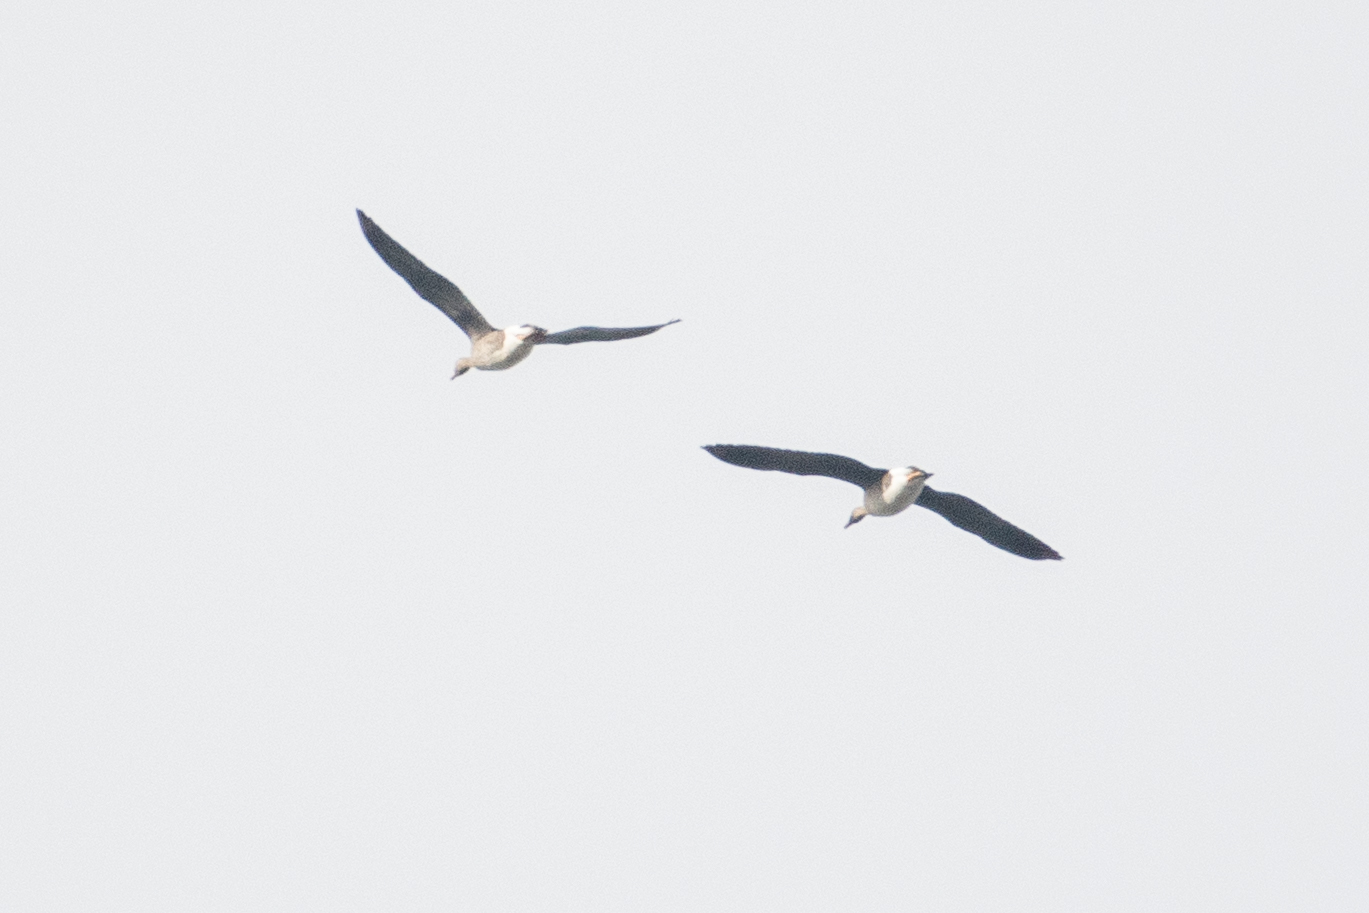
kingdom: Animalia
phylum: Chordata
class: Aves
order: Anseriformes
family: Anatidae
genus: Anser
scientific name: Anser albifrons
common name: Greater white-fronted goose
